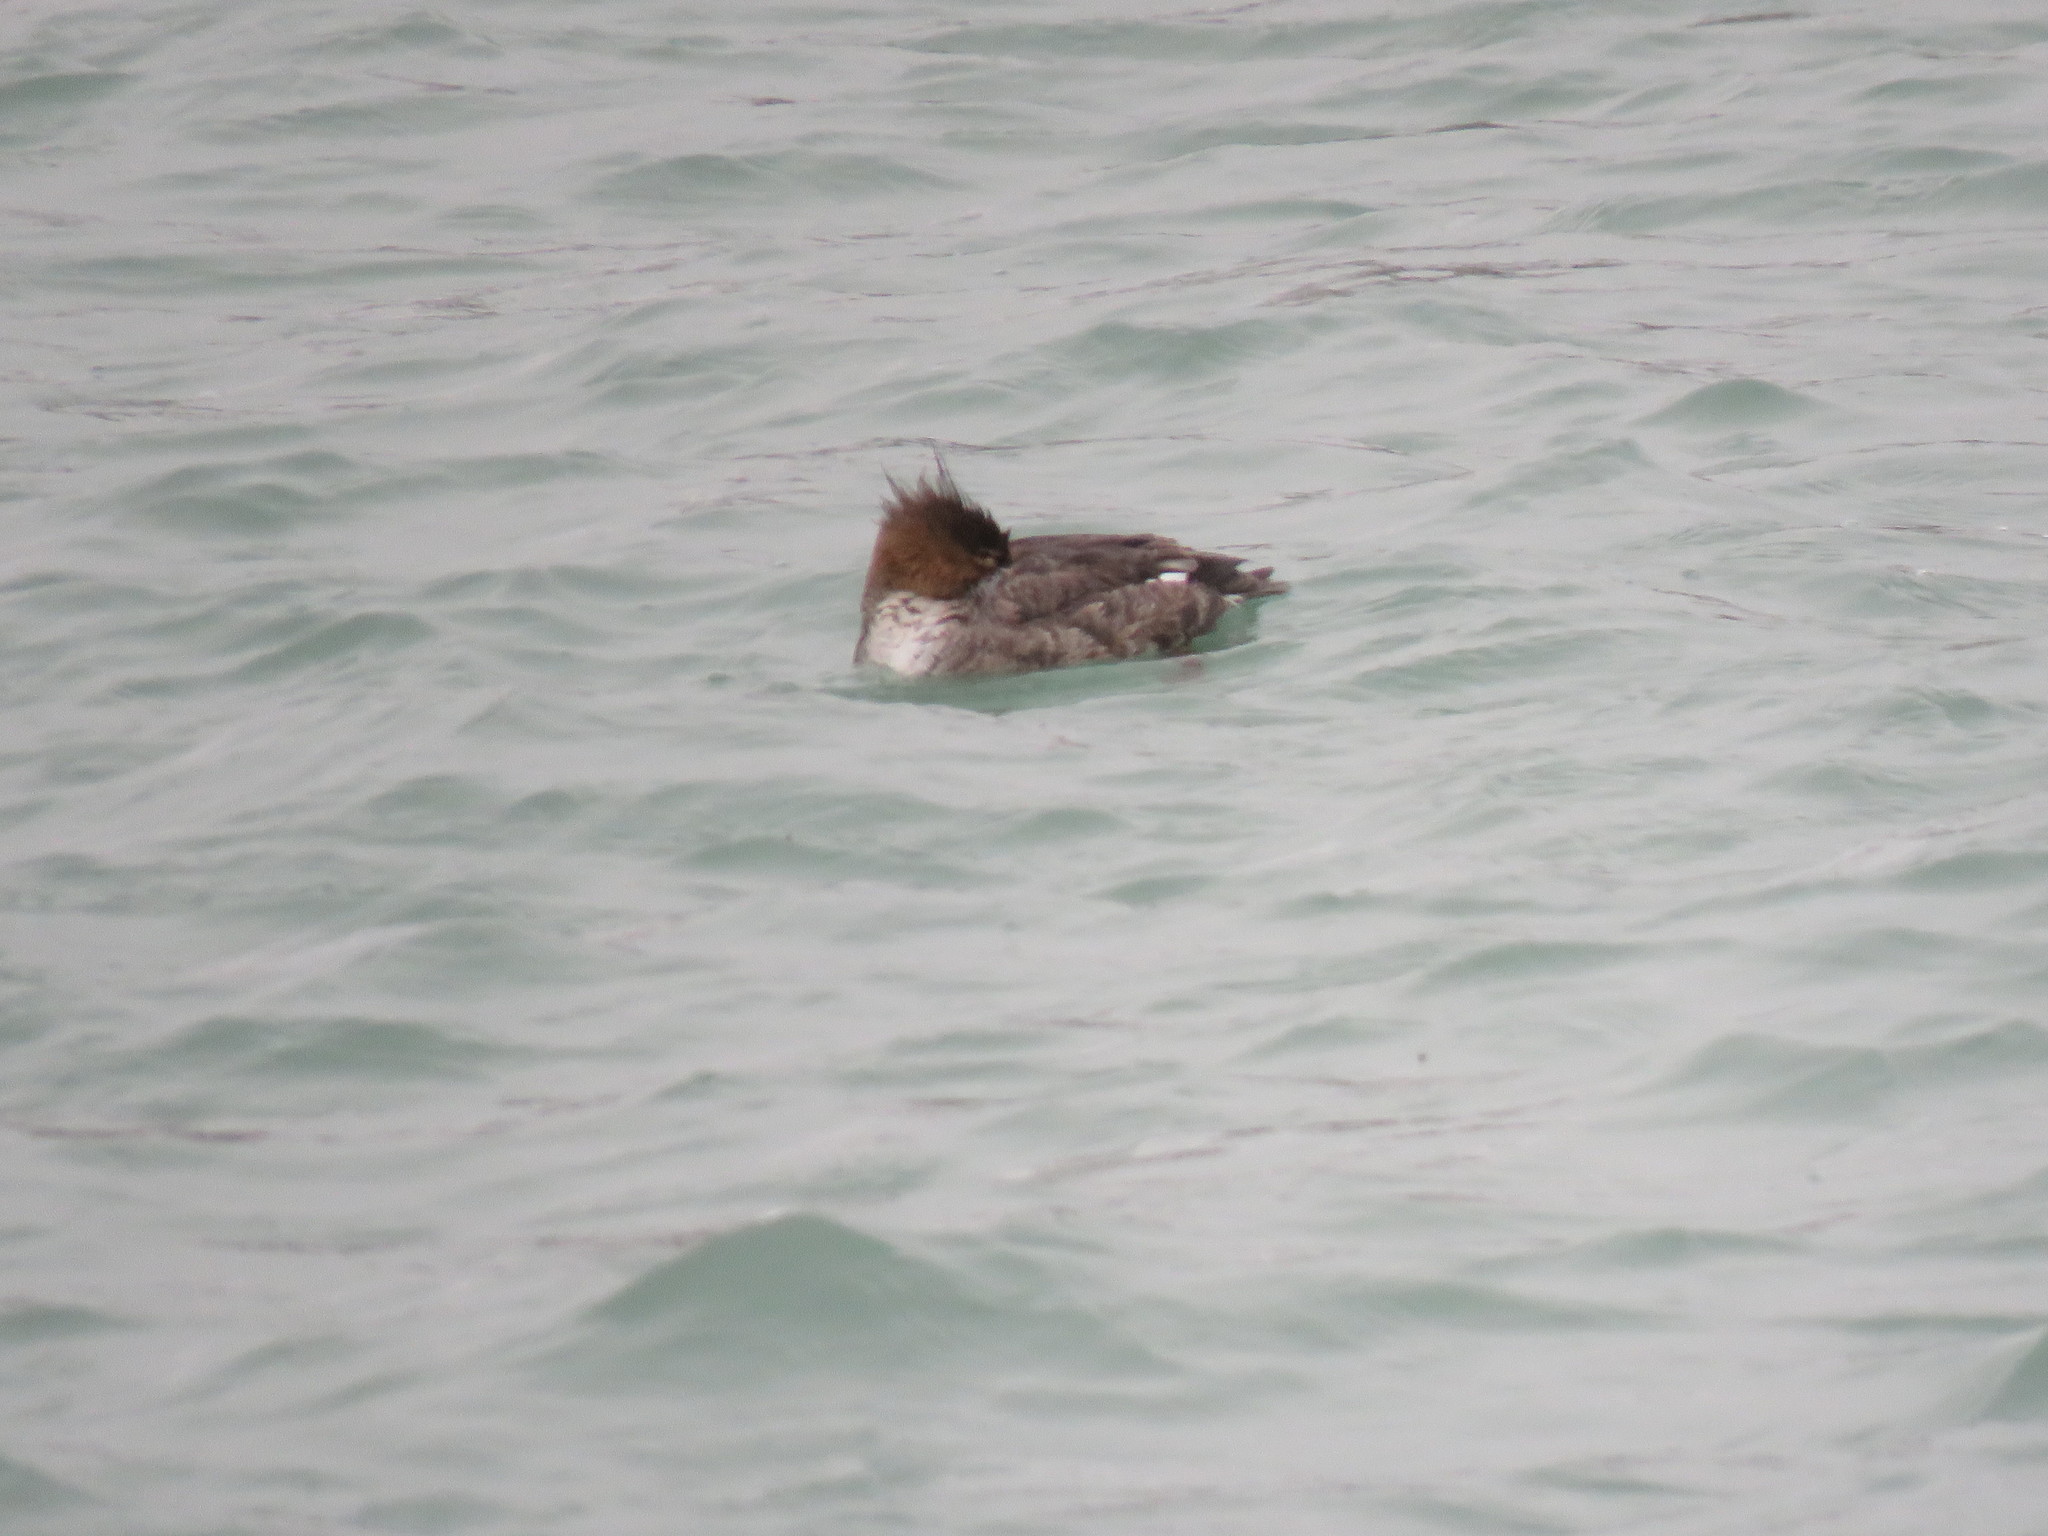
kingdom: Animalia
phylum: Chordata
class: Aves
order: Anseriformes
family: Anatidae
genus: Mergus
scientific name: Mergus serrator
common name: Red-breasted merganser
